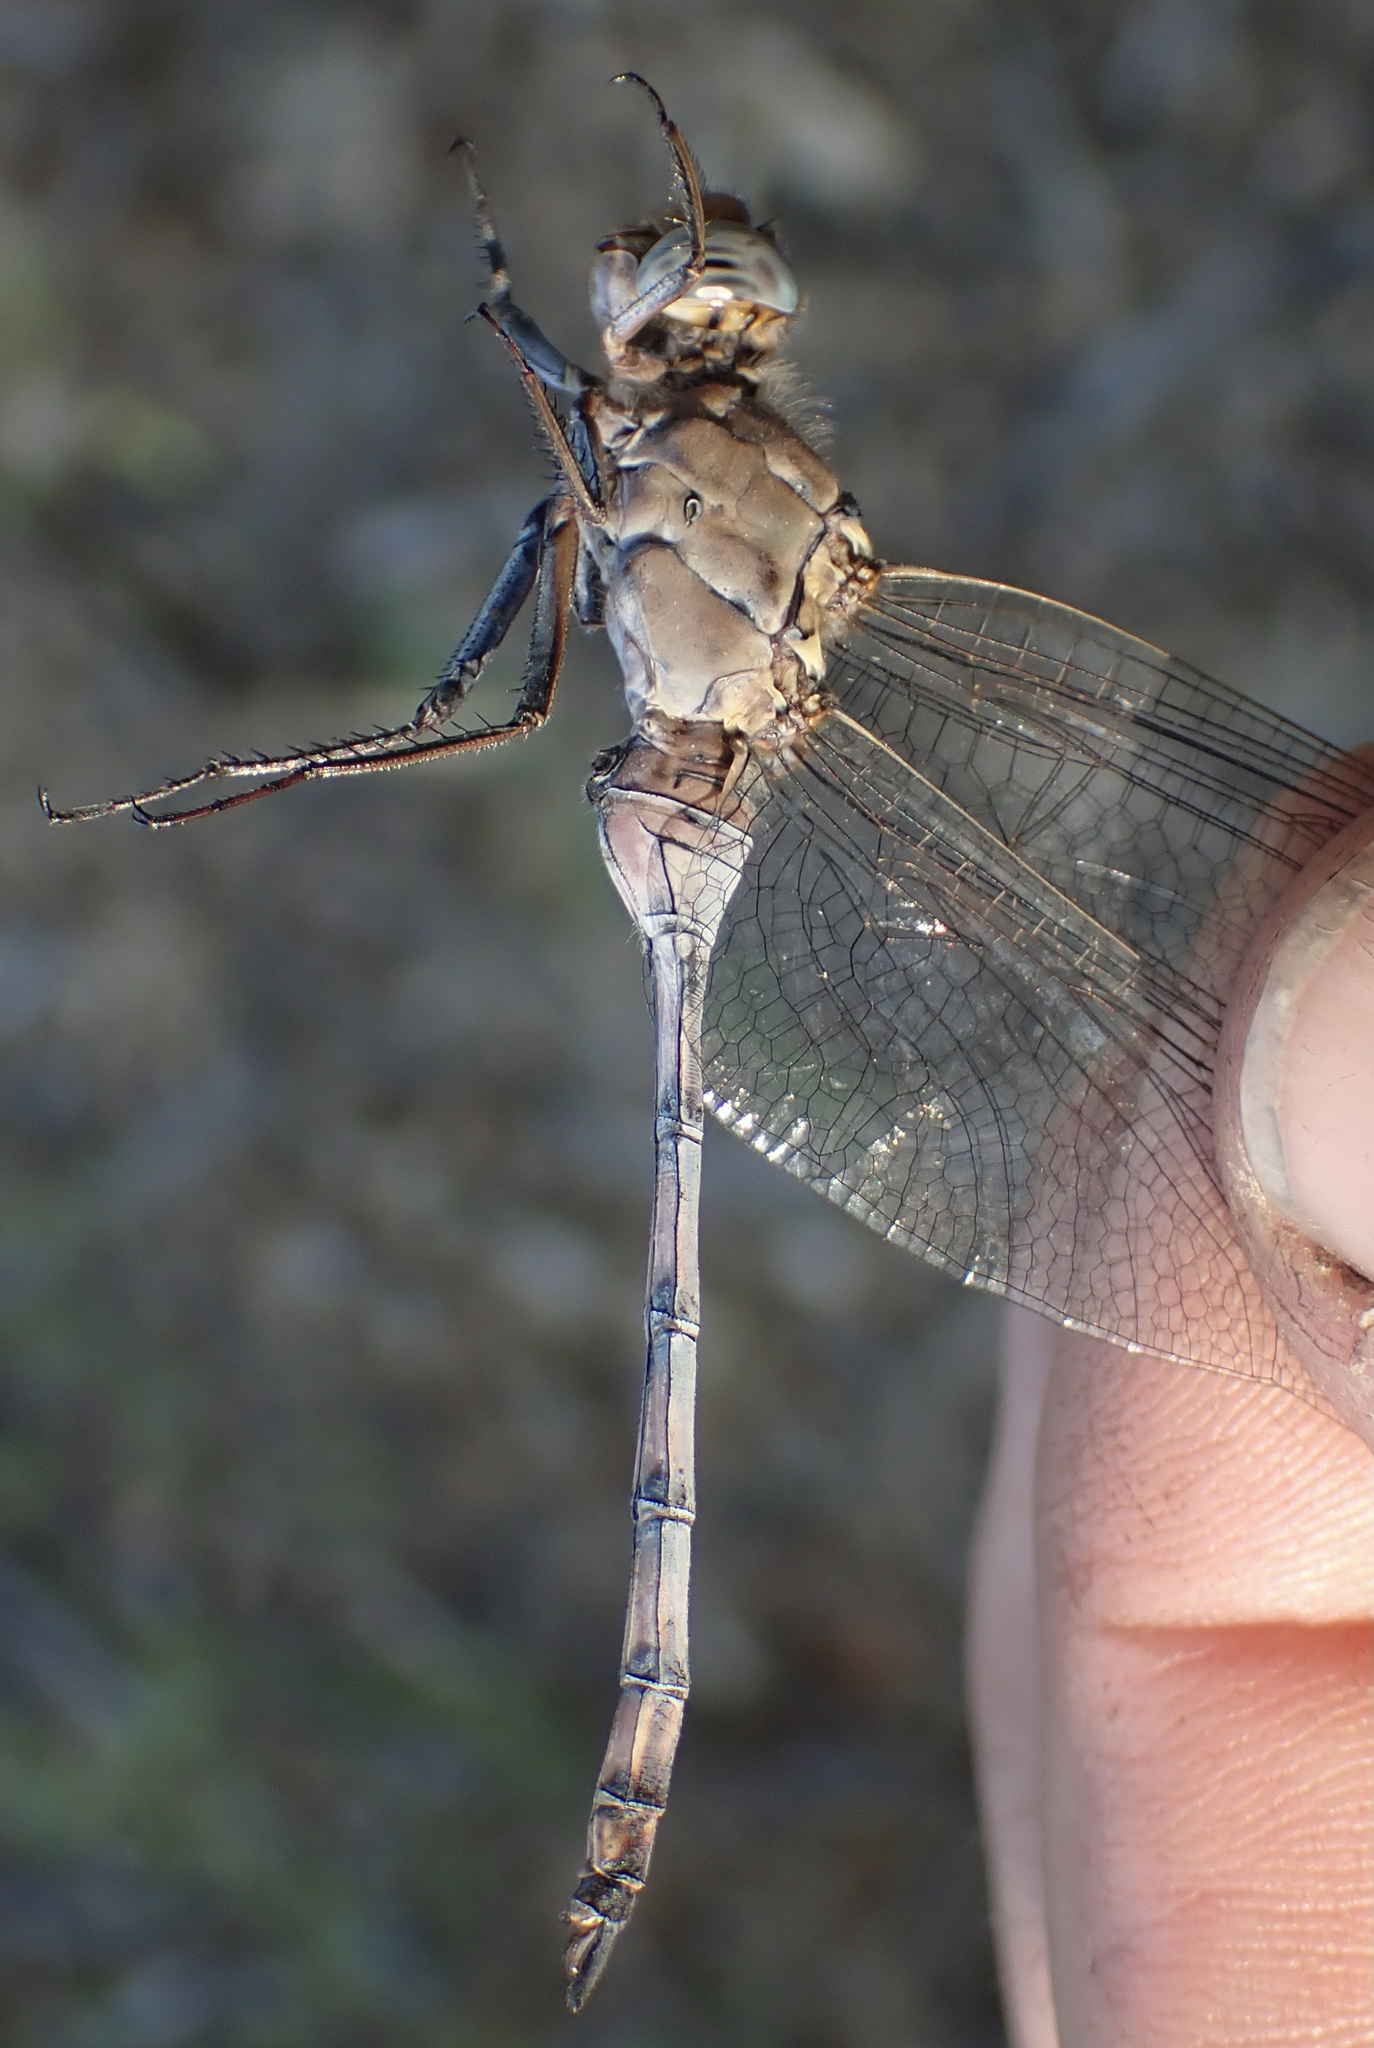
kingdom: Animalia
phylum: Arthropoda
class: Insecta
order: Odonata
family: Libellulidae
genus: Orthetrum
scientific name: Orthetrum robustum
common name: Robust skimmer
